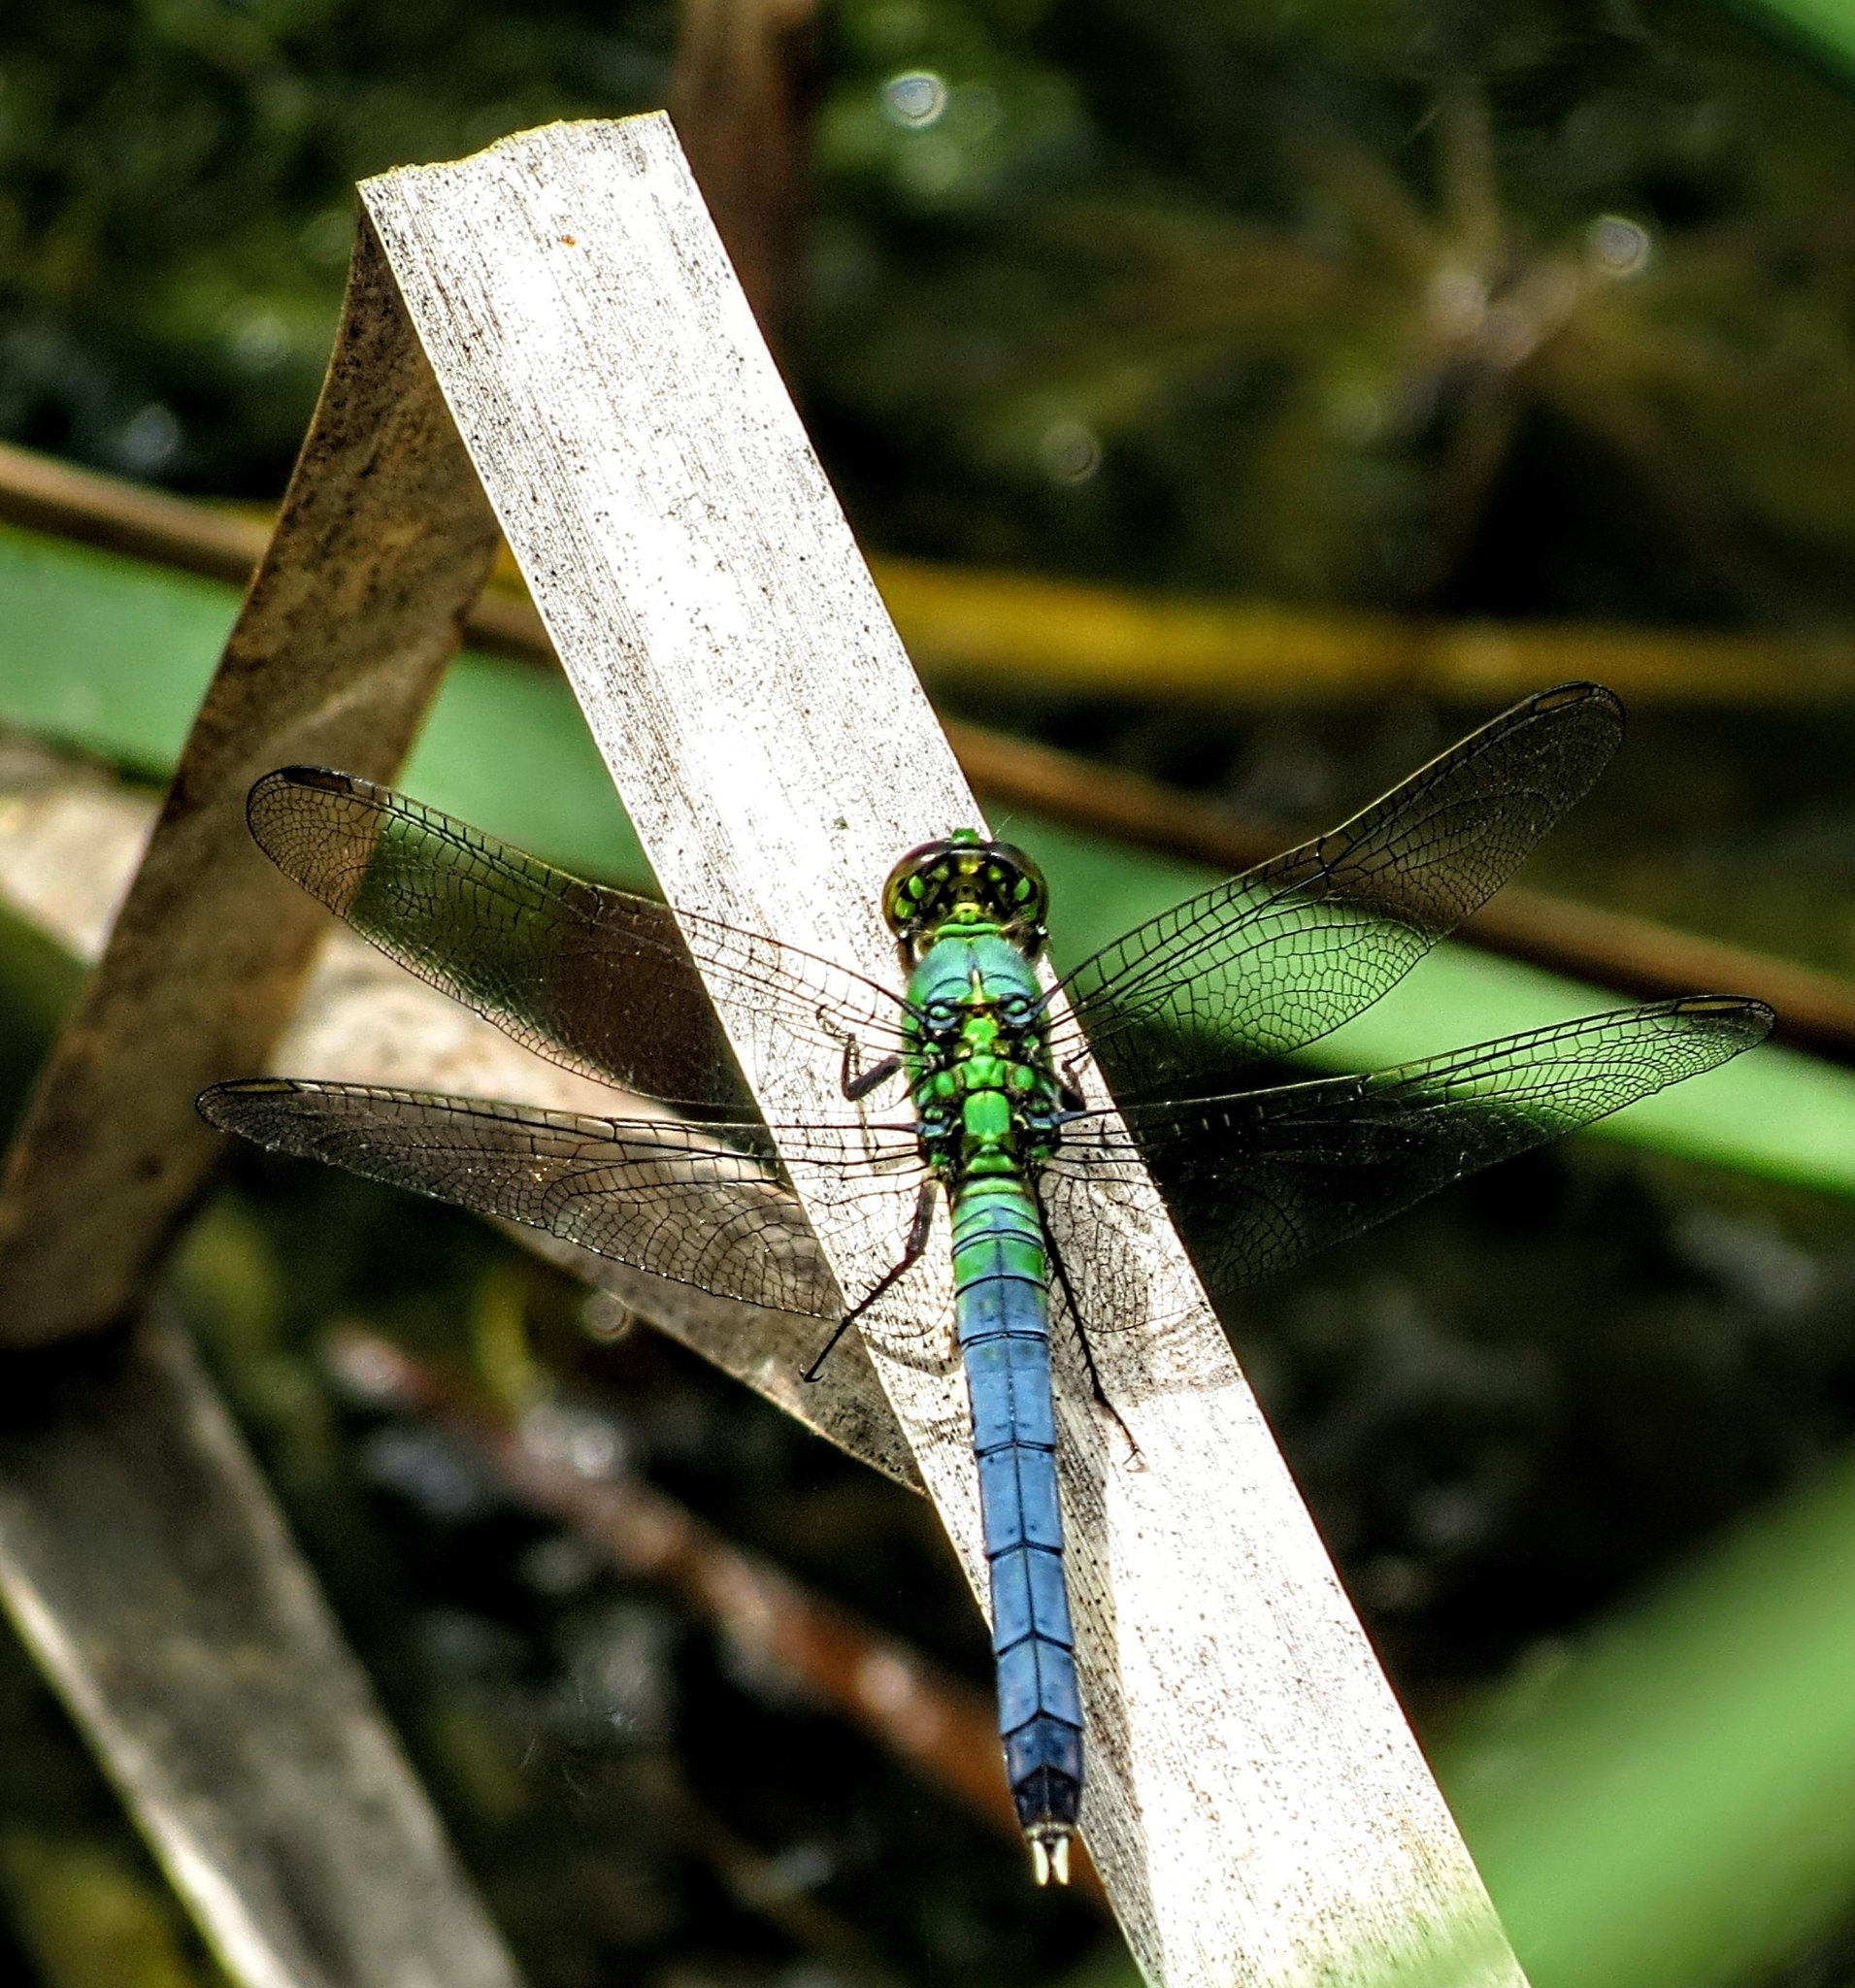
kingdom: Animalia
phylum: Arthropoda
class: Insecta
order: Odonata
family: Libellulidae
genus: Erythemis
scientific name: Erythemis simplicicollis
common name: Eastern pondhawk
